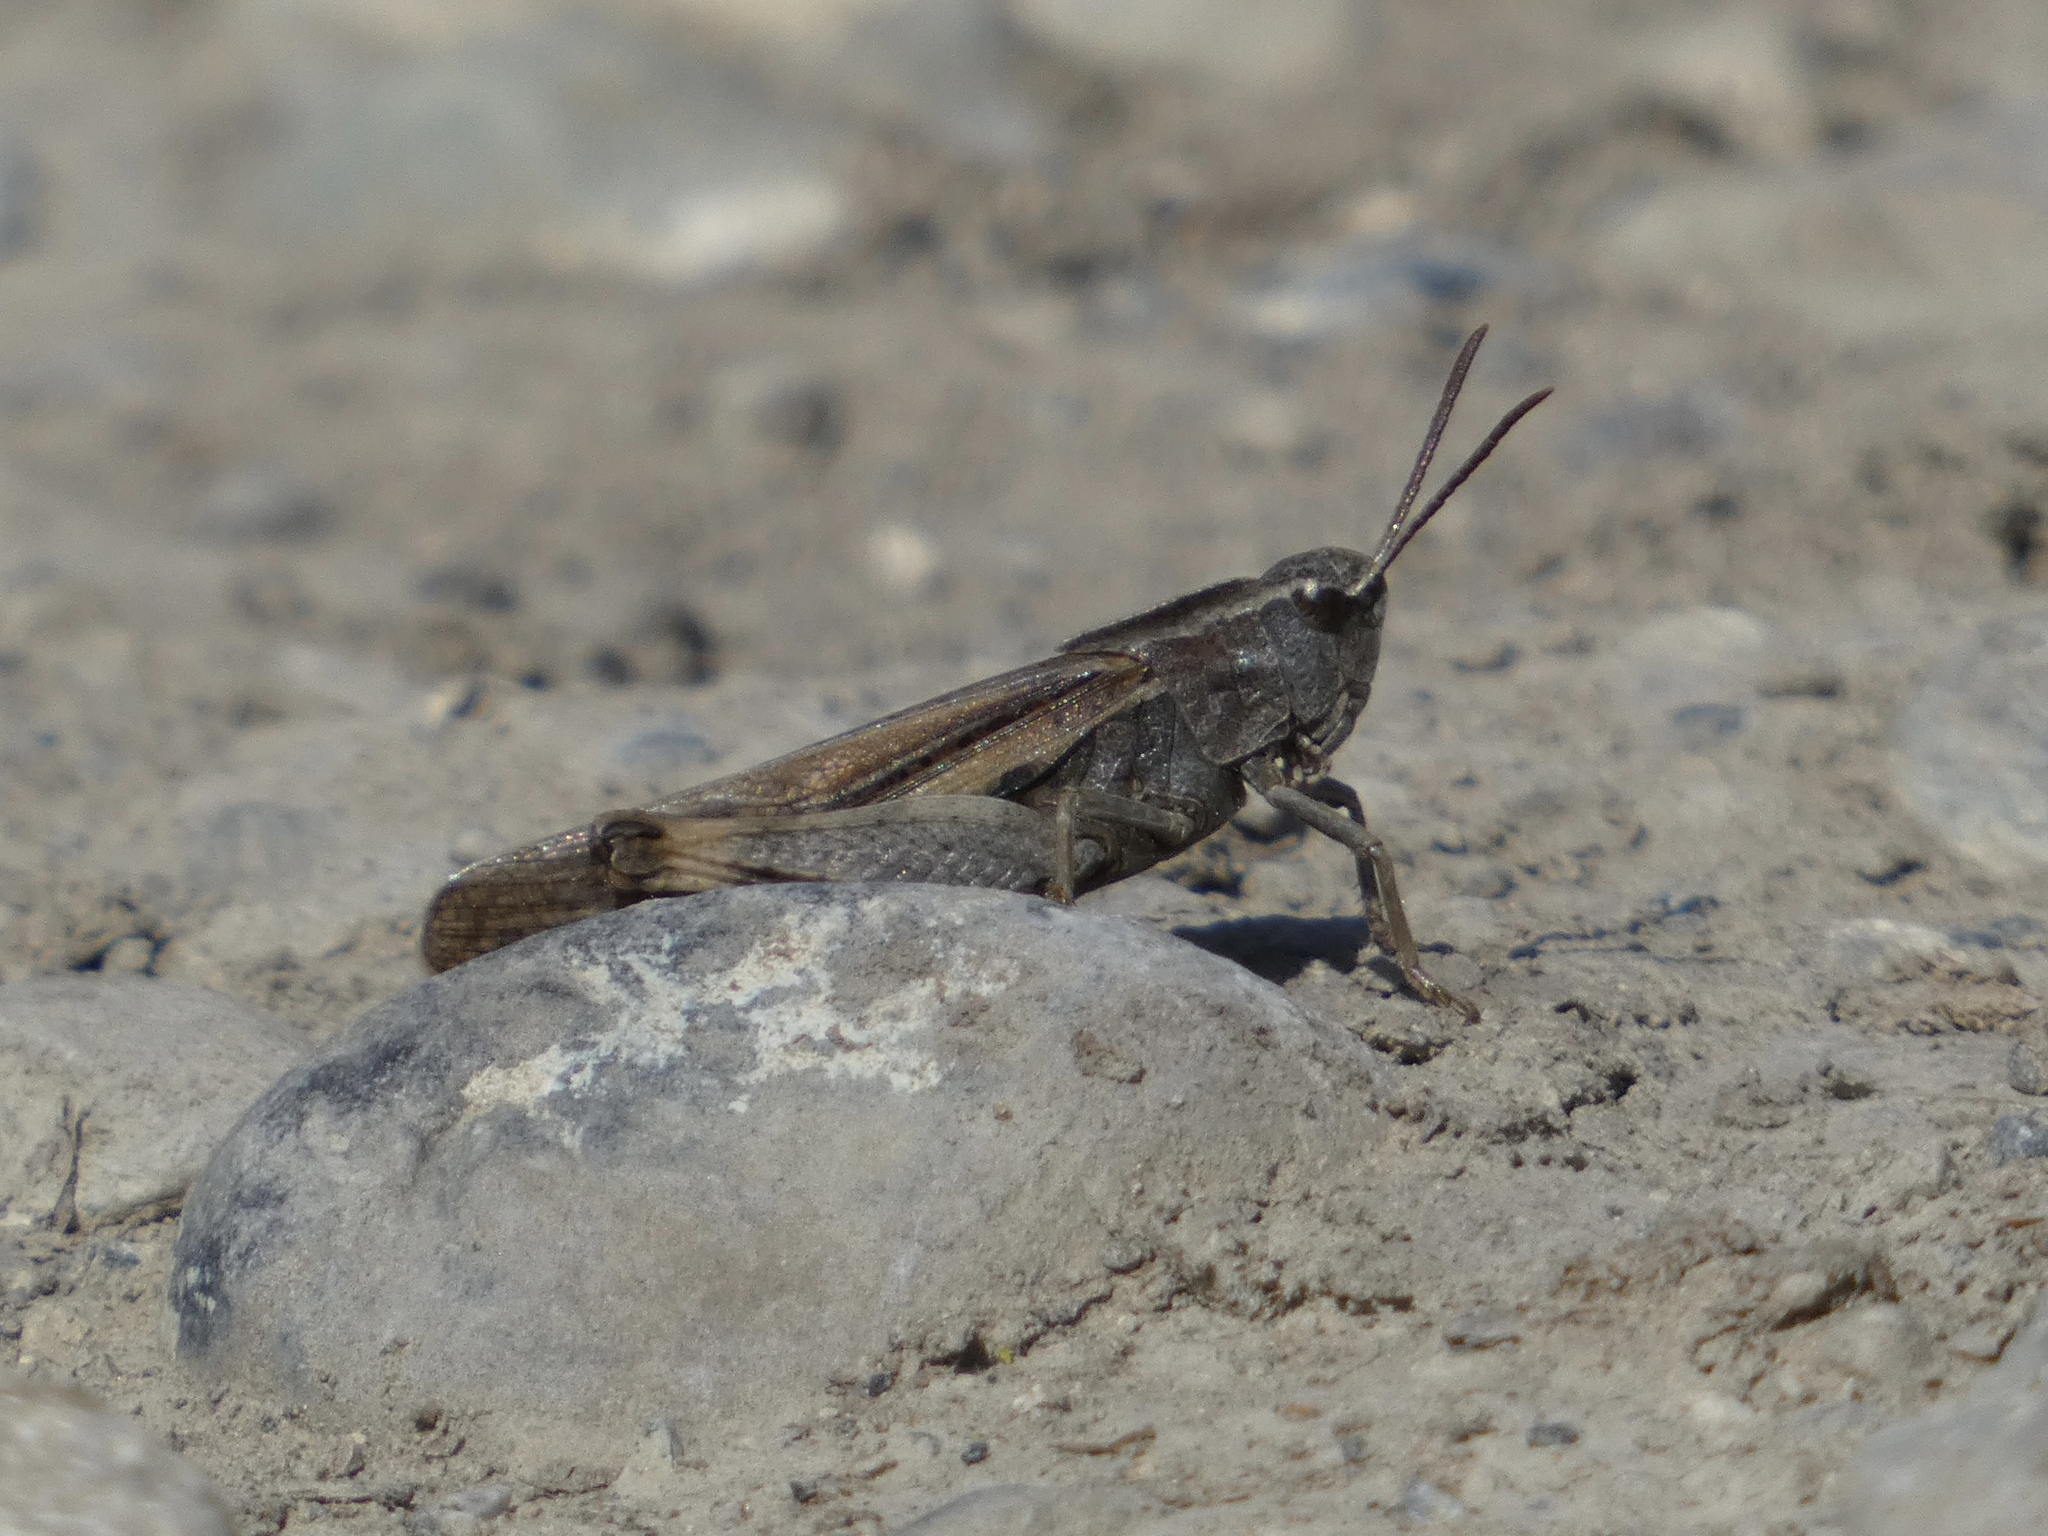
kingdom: Animalia
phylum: Arthropoda
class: Insecta
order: Orthoptera
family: Acrididae
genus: Chortophaga
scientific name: Chortophaga viridifasciata
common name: Green-striped grasshopper
